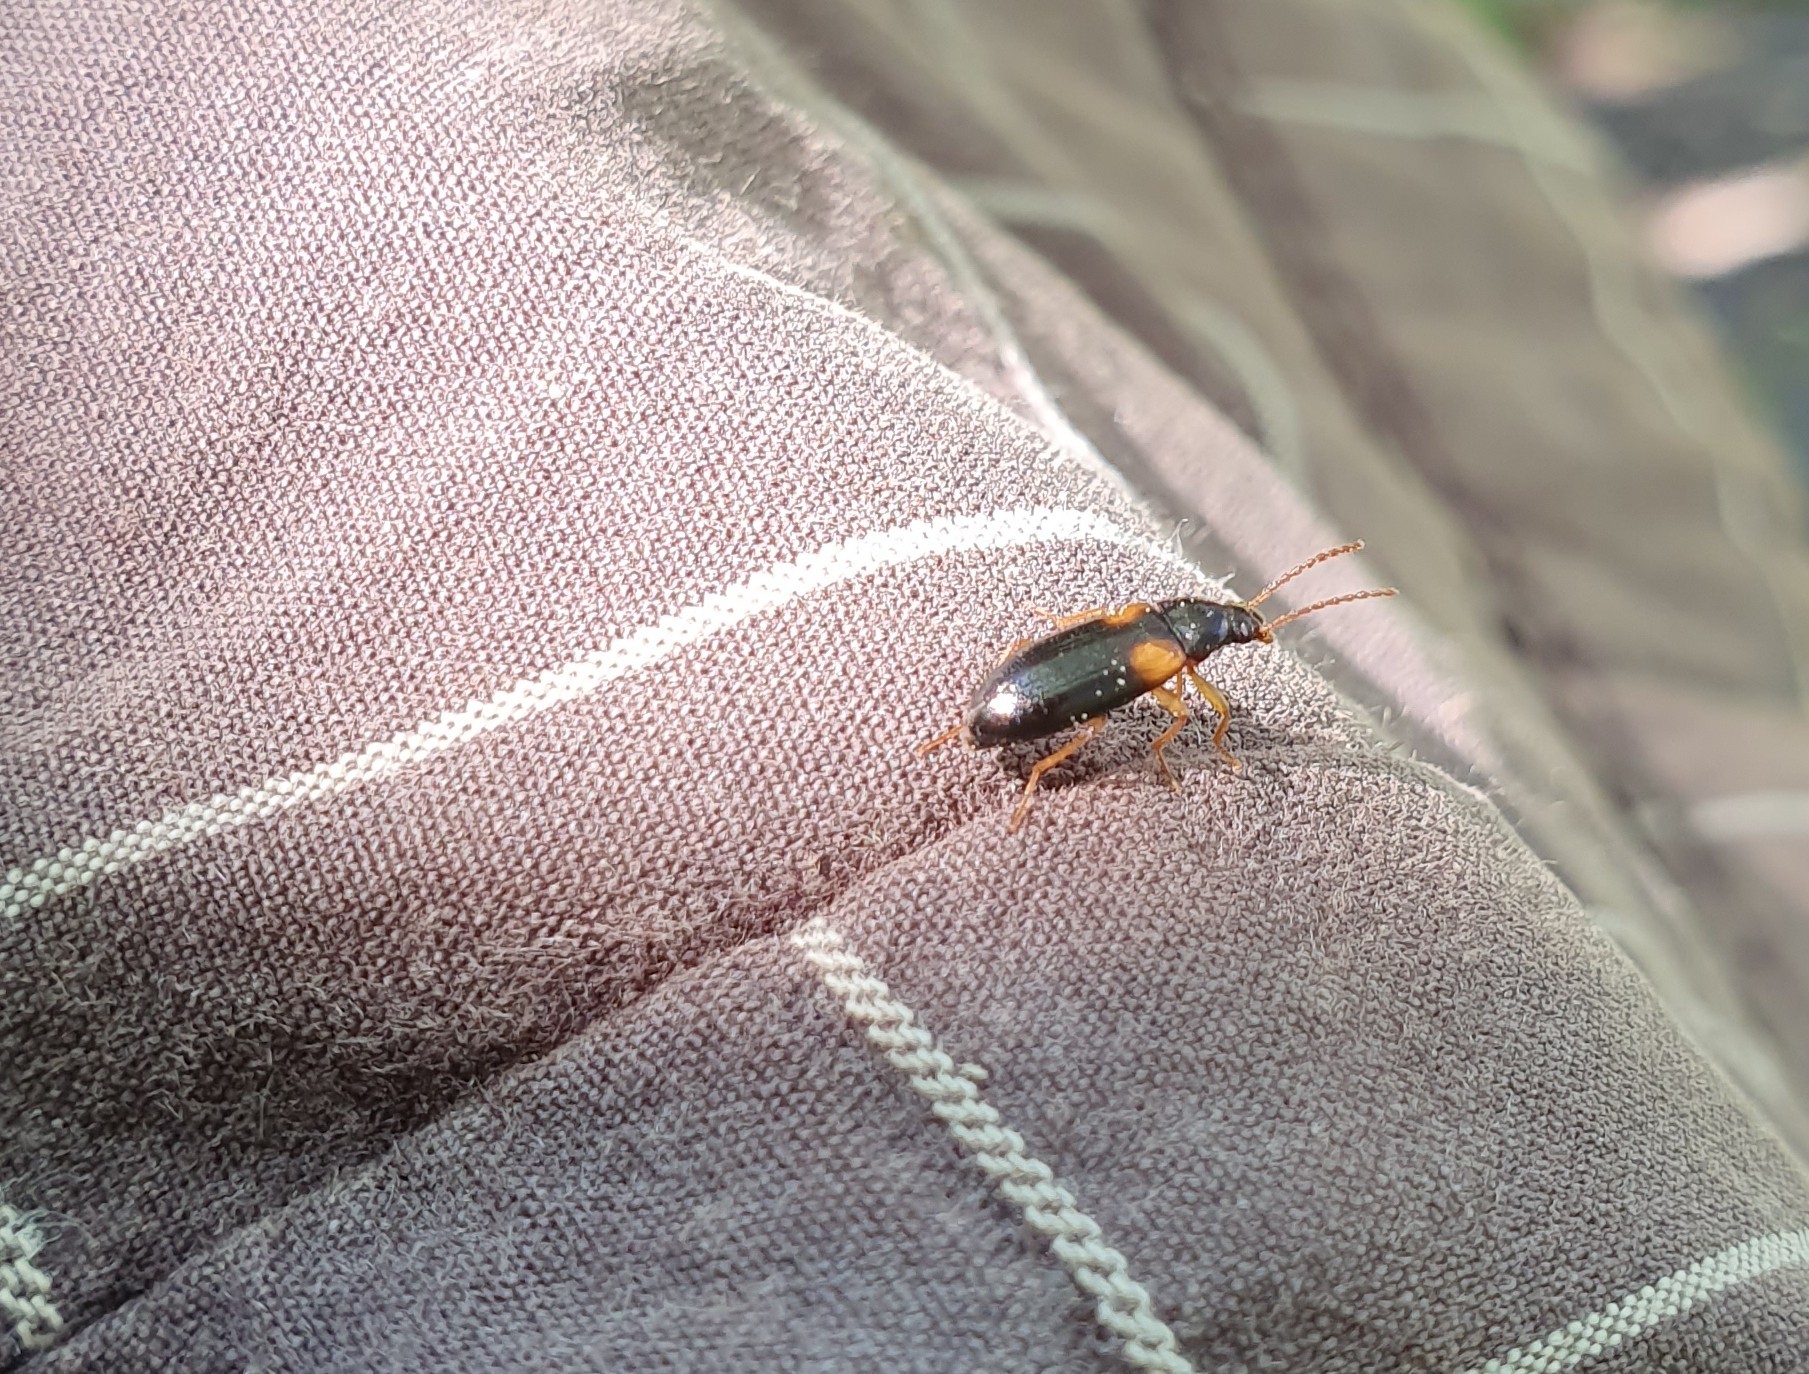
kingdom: Animalia
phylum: Arthropoda
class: Insecta
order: Coleoptera
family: Tenebrionidae
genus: Mycetochara
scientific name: Mycetochara flavipes
